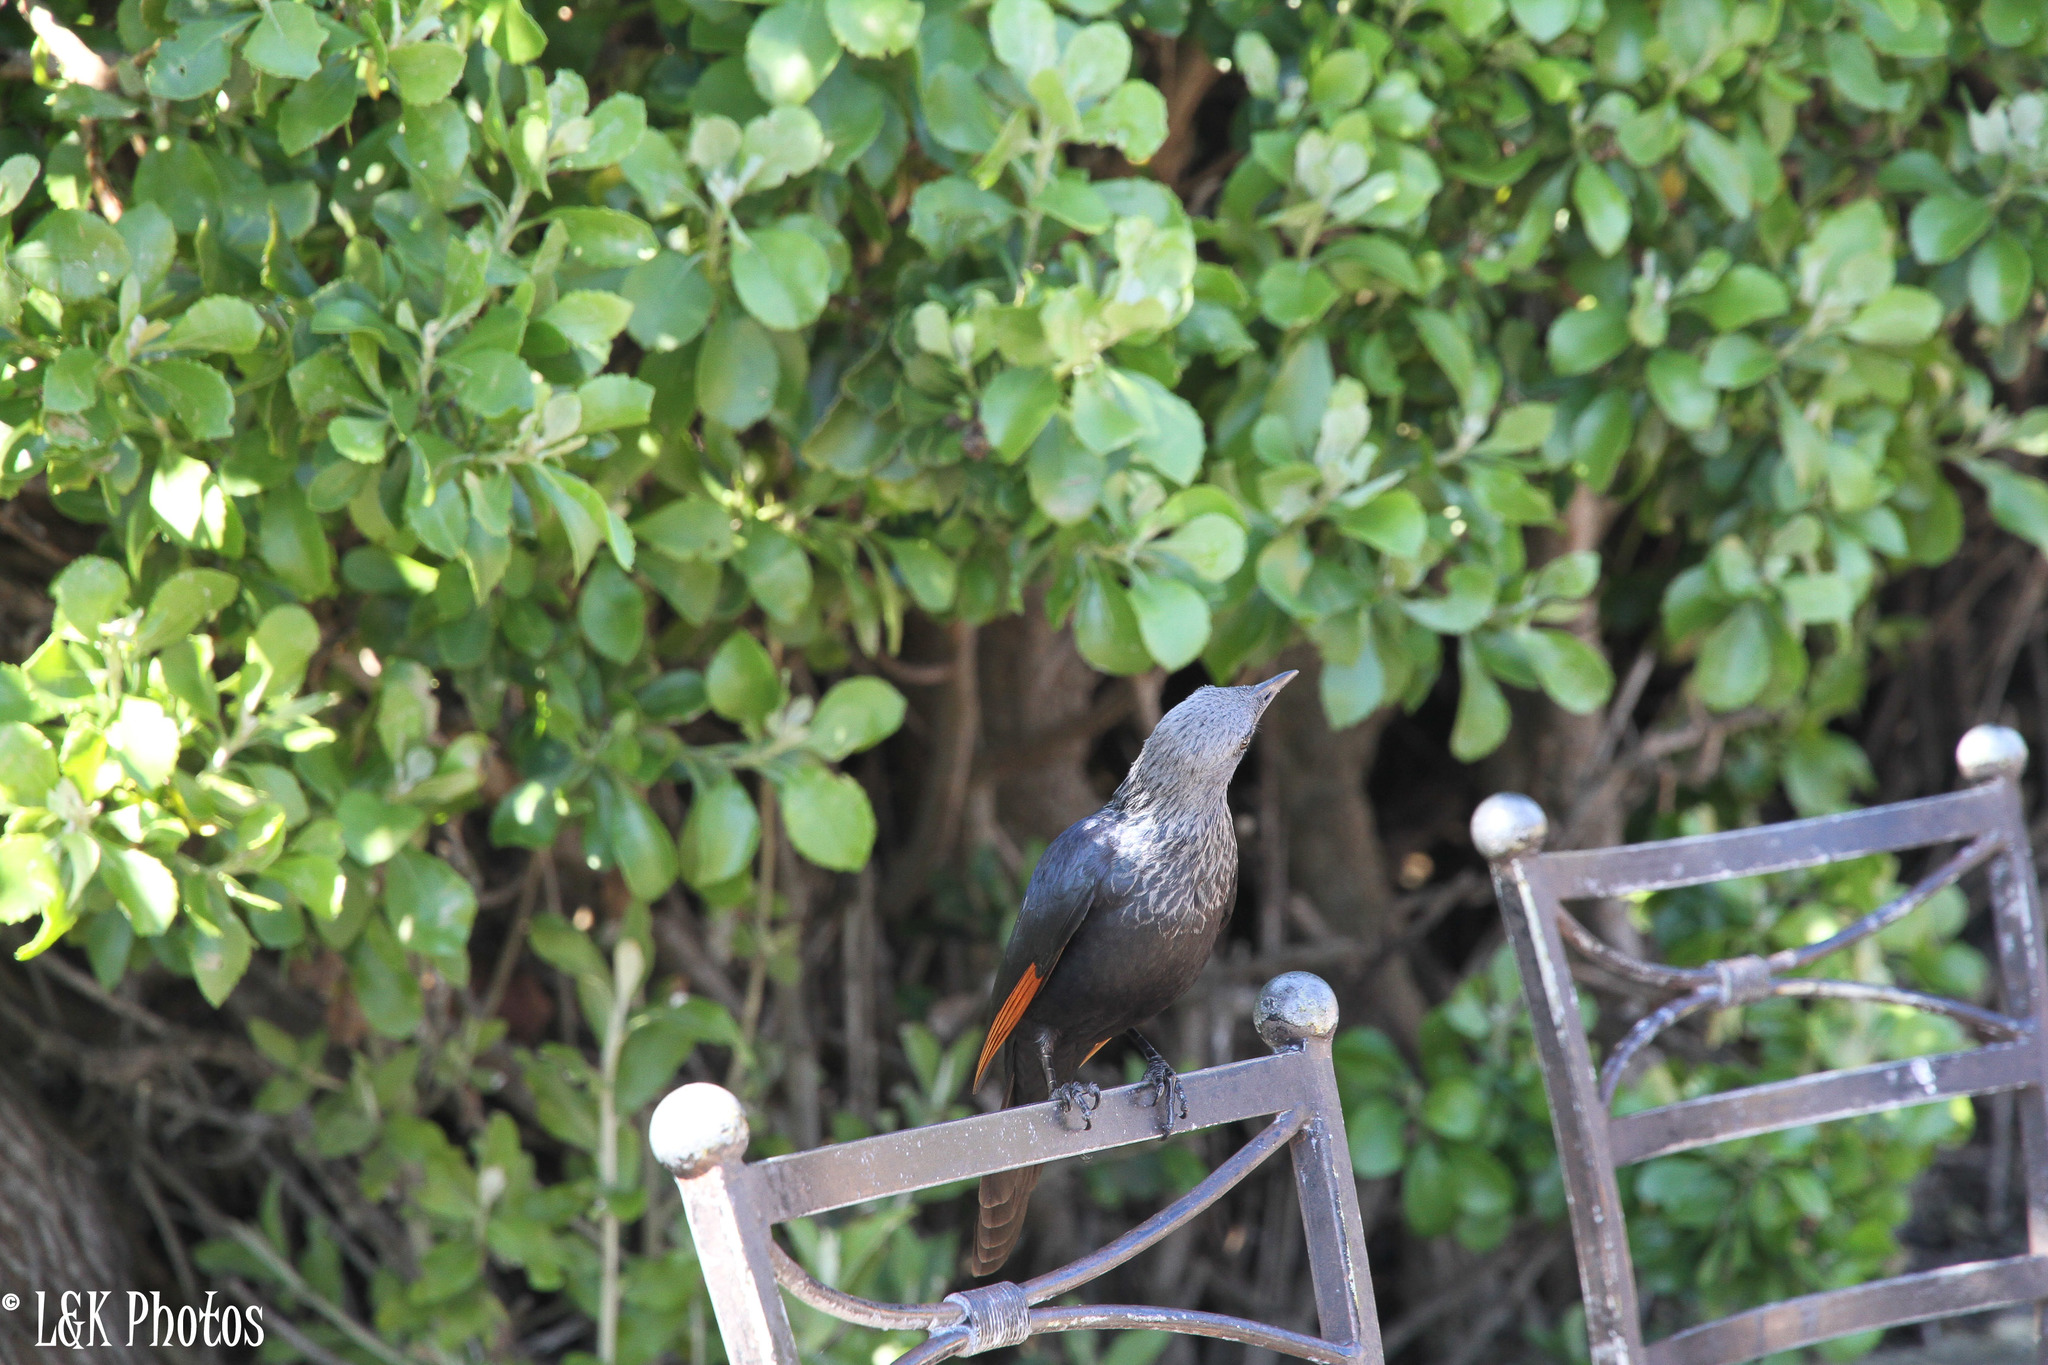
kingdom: Animalia
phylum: Chordata
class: Aves
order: Passeriformes
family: Sturnidae
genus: Onychognathus
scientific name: Onychognathus morio
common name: Red-winged starling
